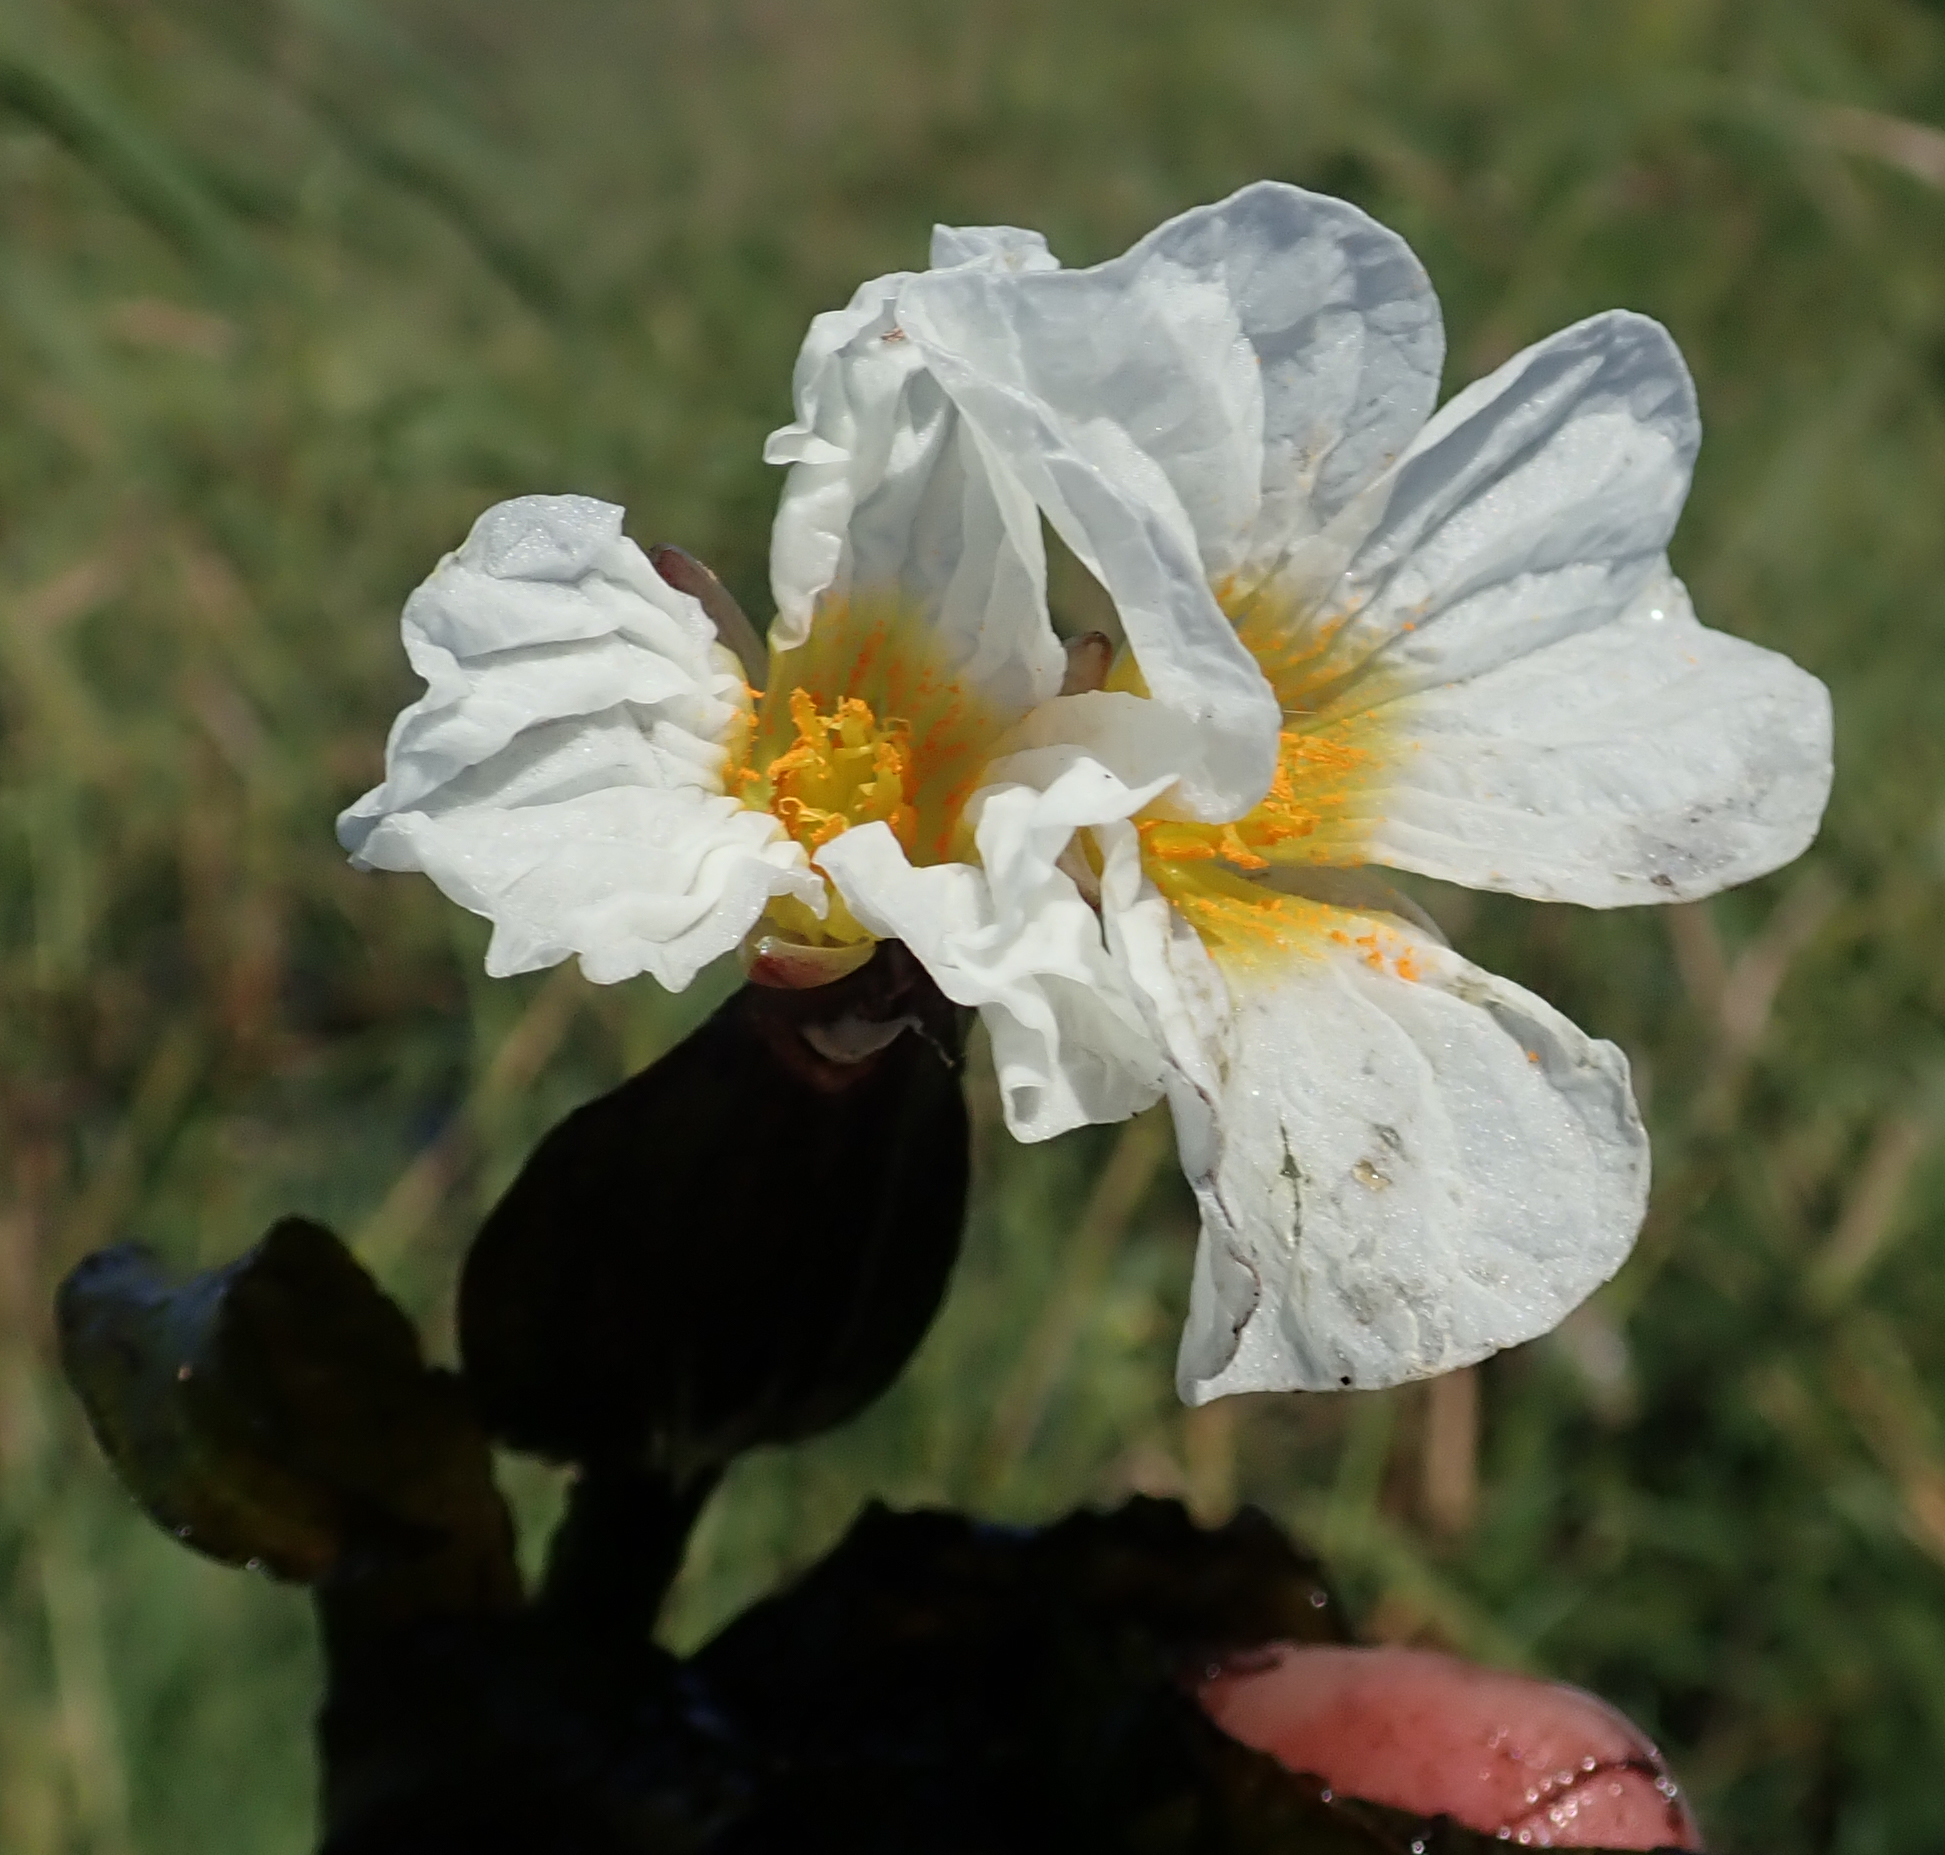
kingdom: Plantae
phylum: Tracheophyta
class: Liliopsida
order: Alismatales
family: Hydrocharitaceae
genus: Ottelia
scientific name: Ottelia kunenensis
